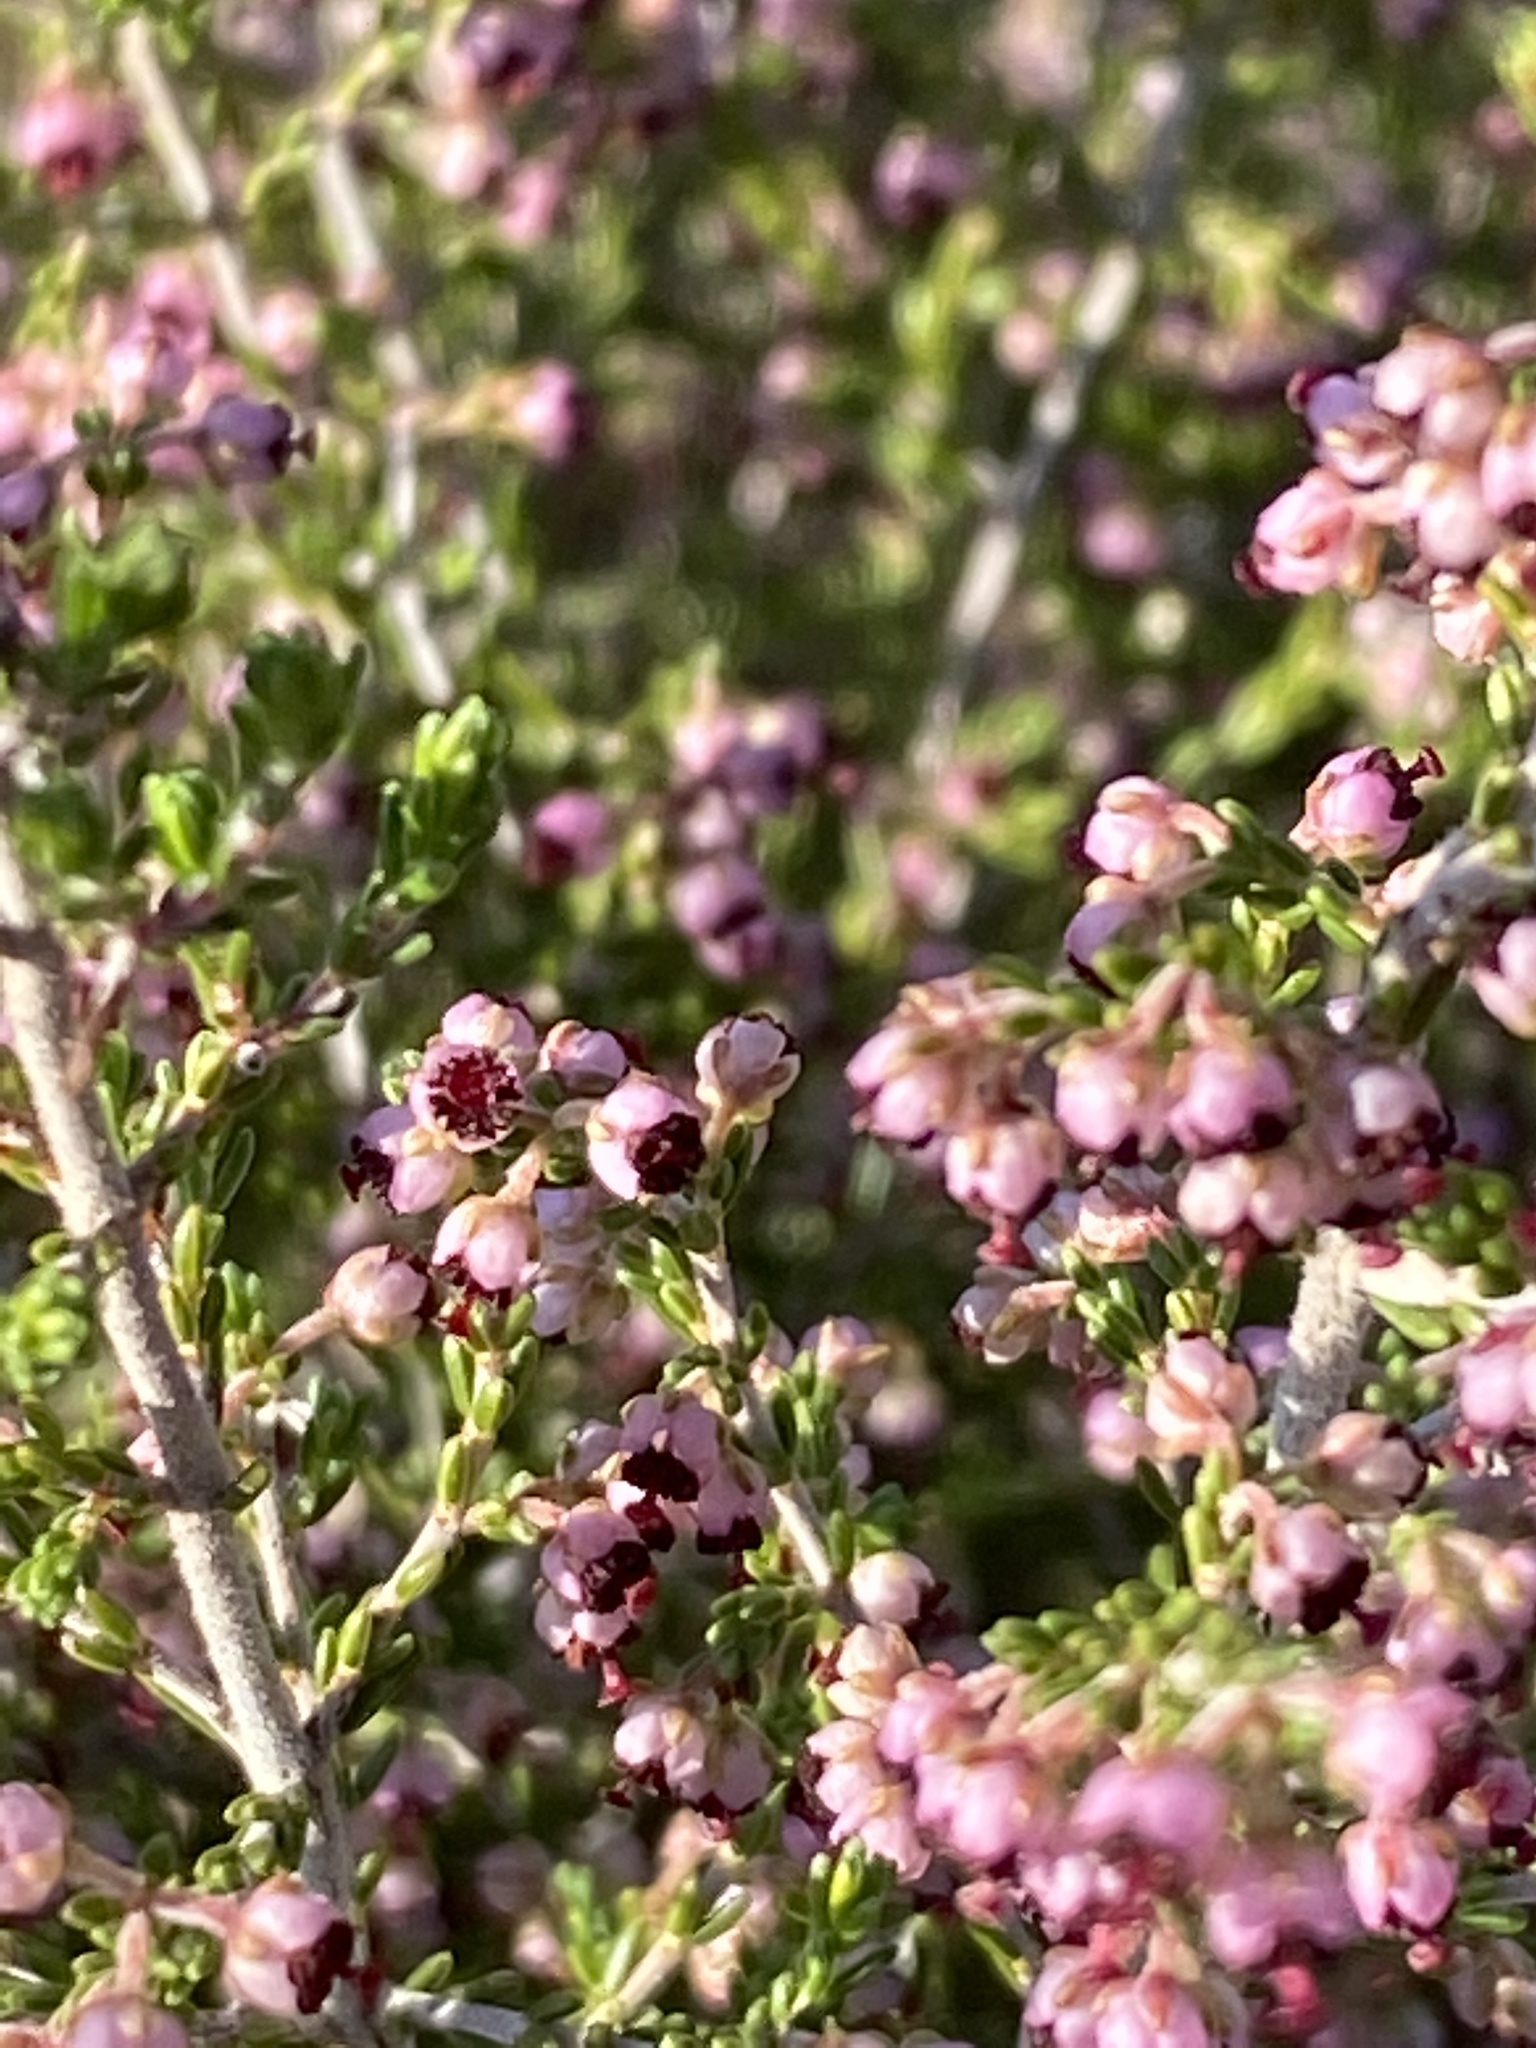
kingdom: Plantae
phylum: Tracheophyta
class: Magnoliopsida
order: Ericales
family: Ericaceae
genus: Erica
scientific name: Erica peltata
